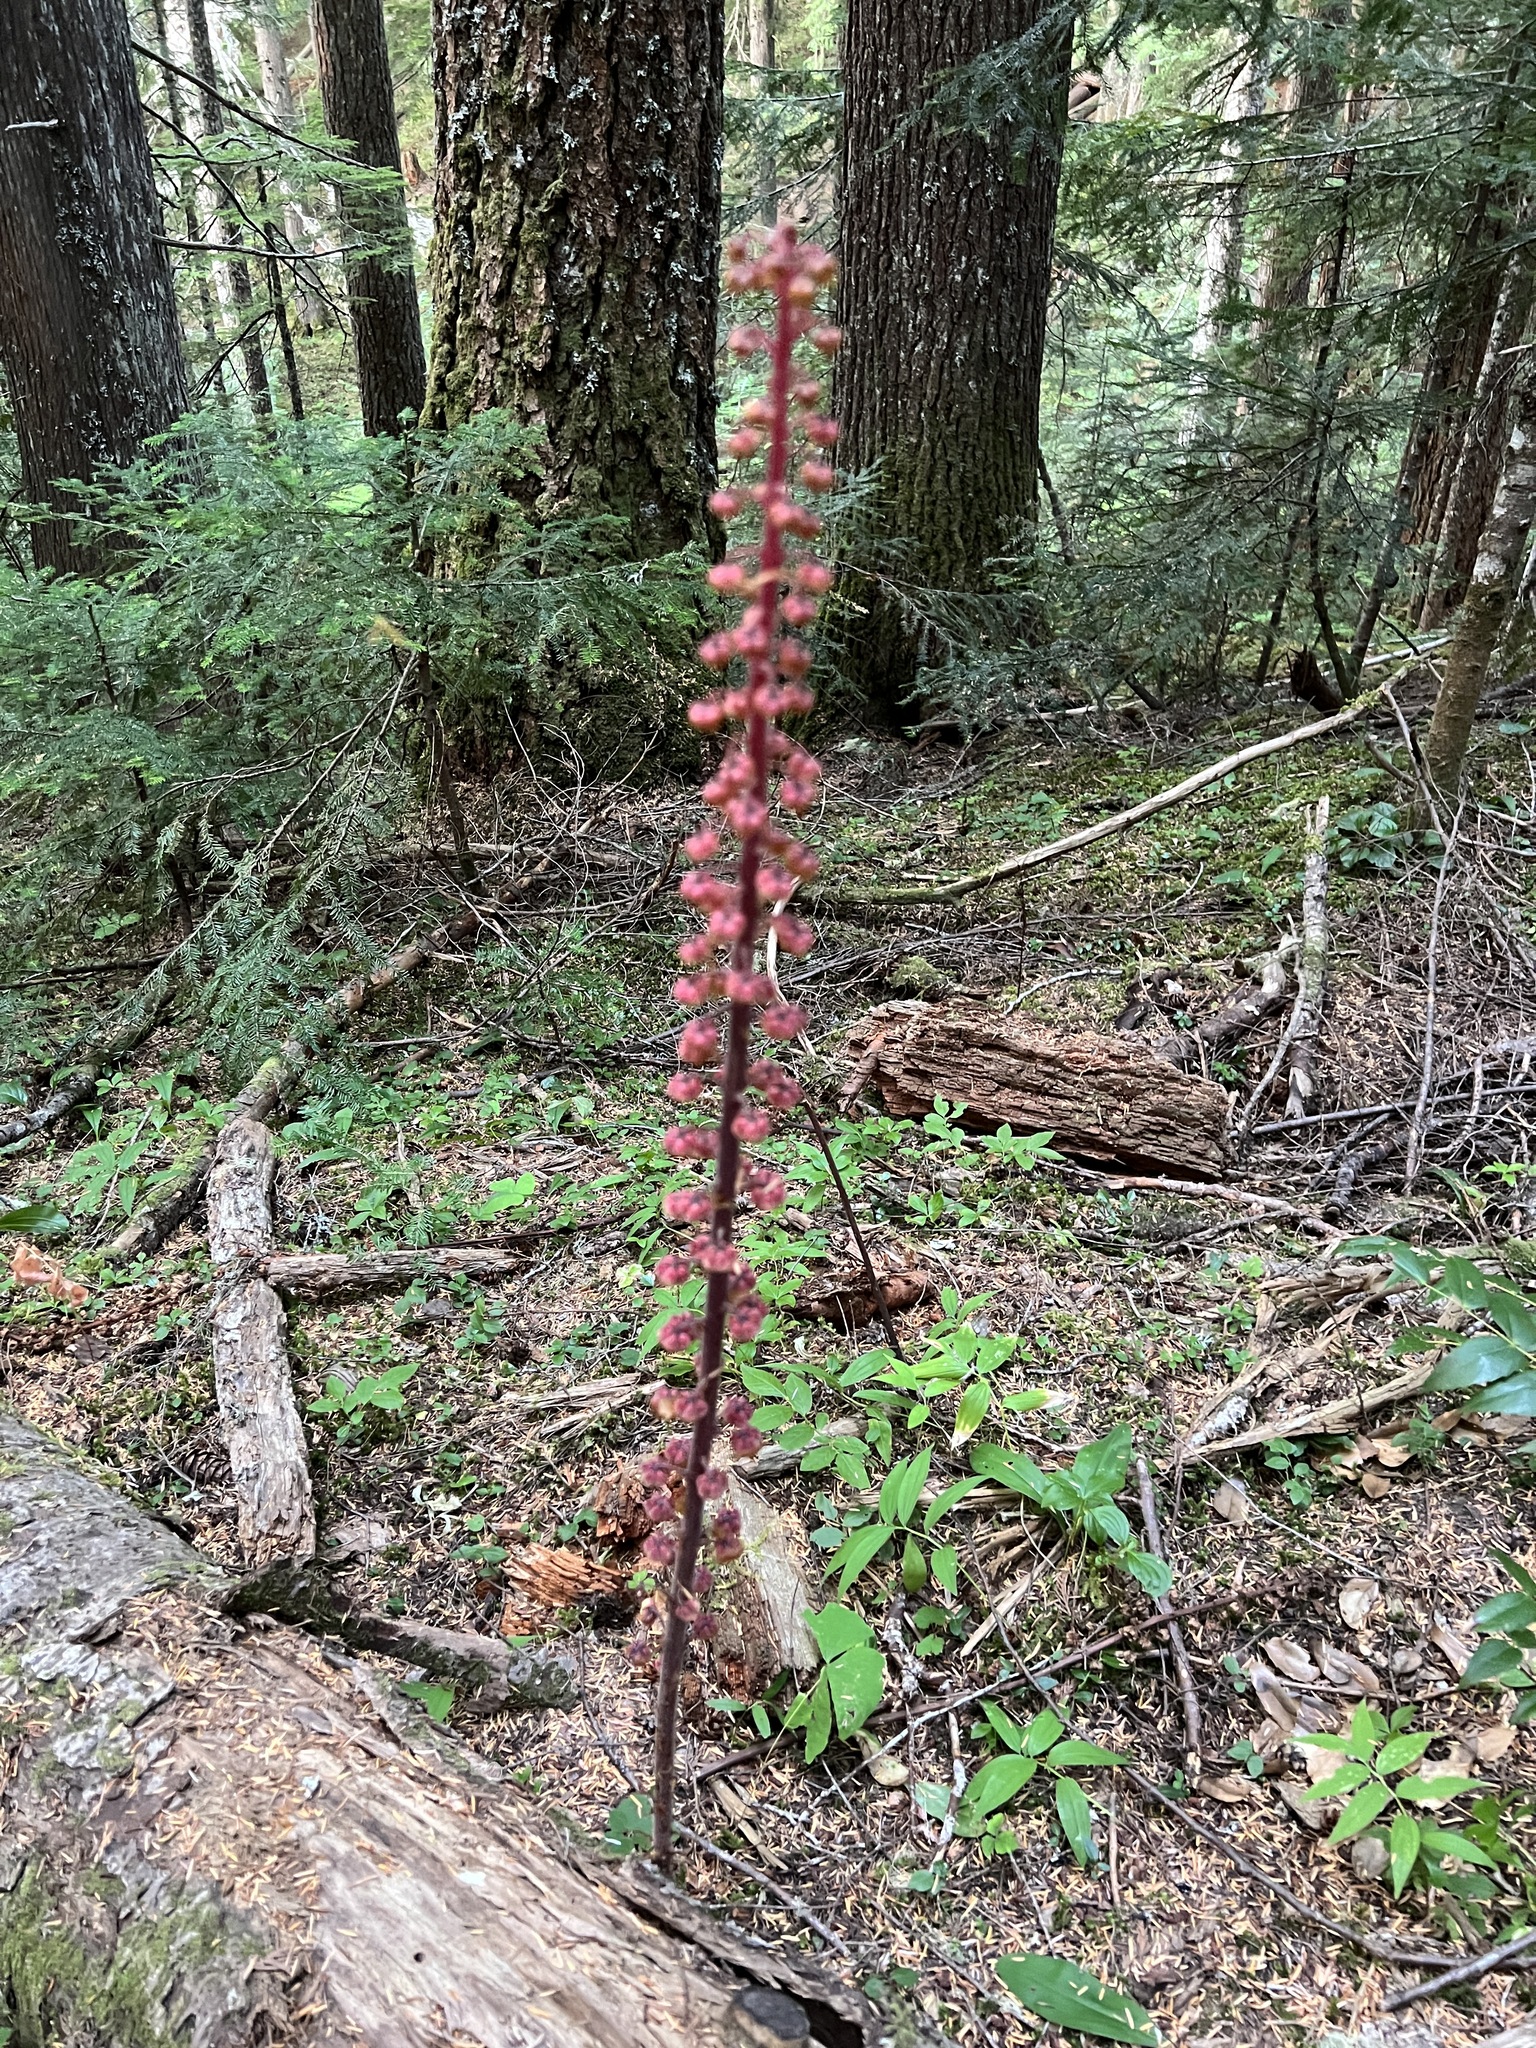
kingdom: Plantae
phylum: Tracheophyta
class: Magnoliopsida
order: Ericales
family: Ericaceae
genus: Pterospora
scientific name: Pterospora andromedea
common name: Giant bird's-nest
